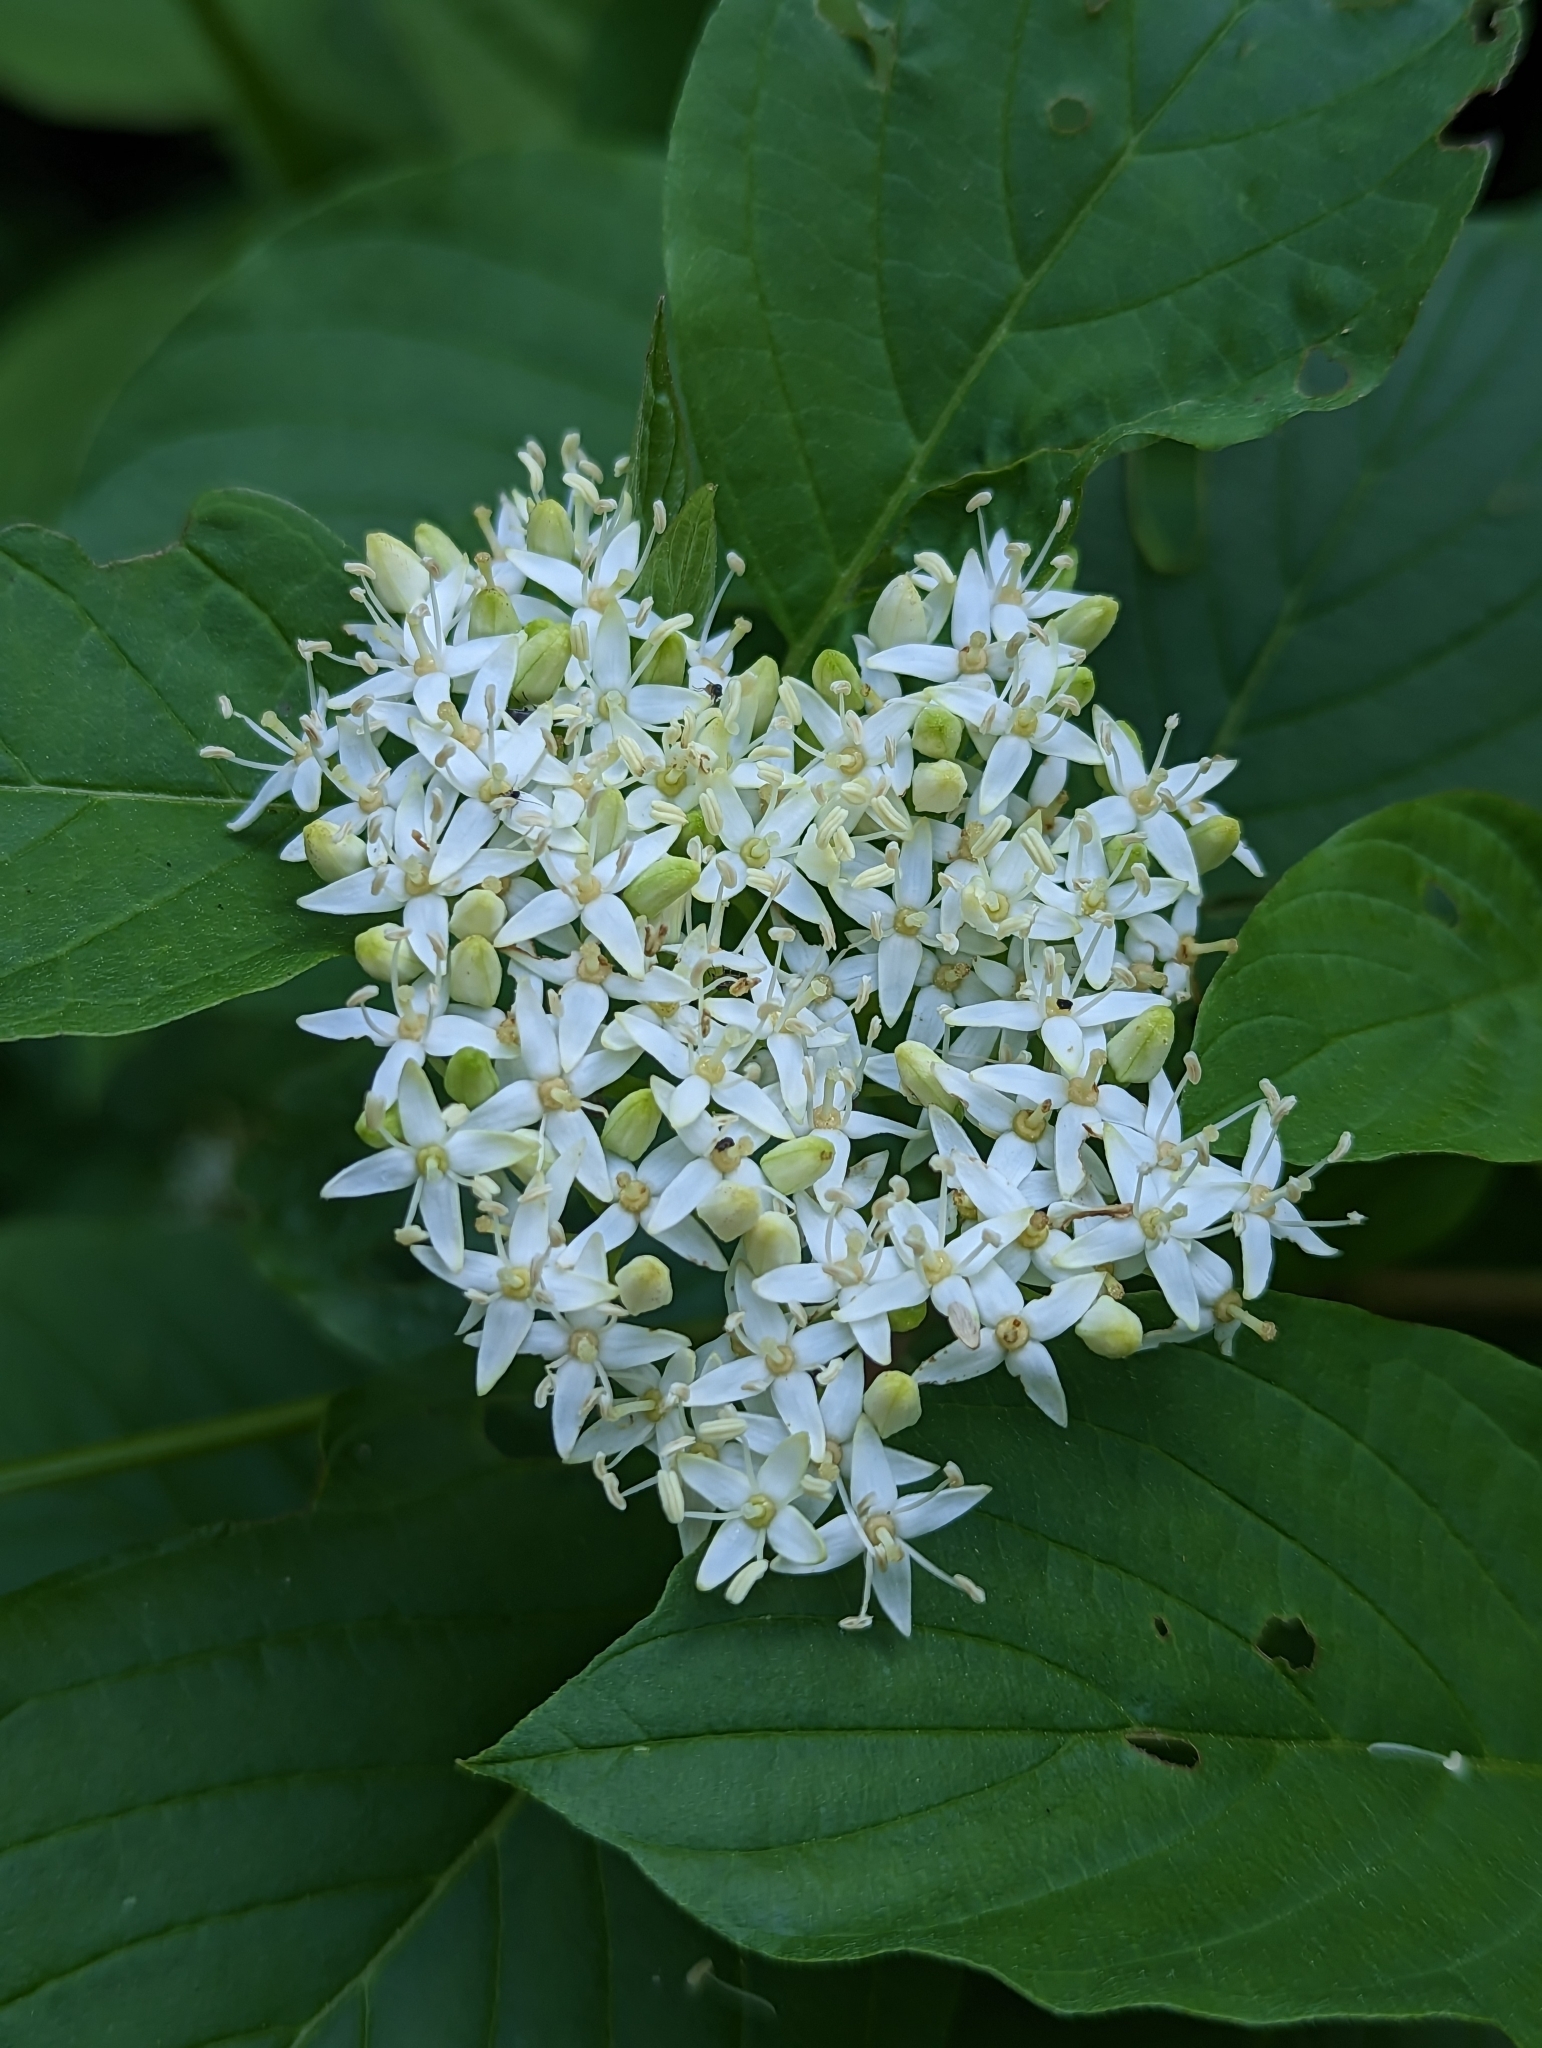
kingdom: Plantae
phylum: Tracheophyta
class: Magnoliopsida
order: Cornales
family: Cornaceae
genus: Cornus
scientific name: Cornus sericea
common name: Red-osier dogwood
